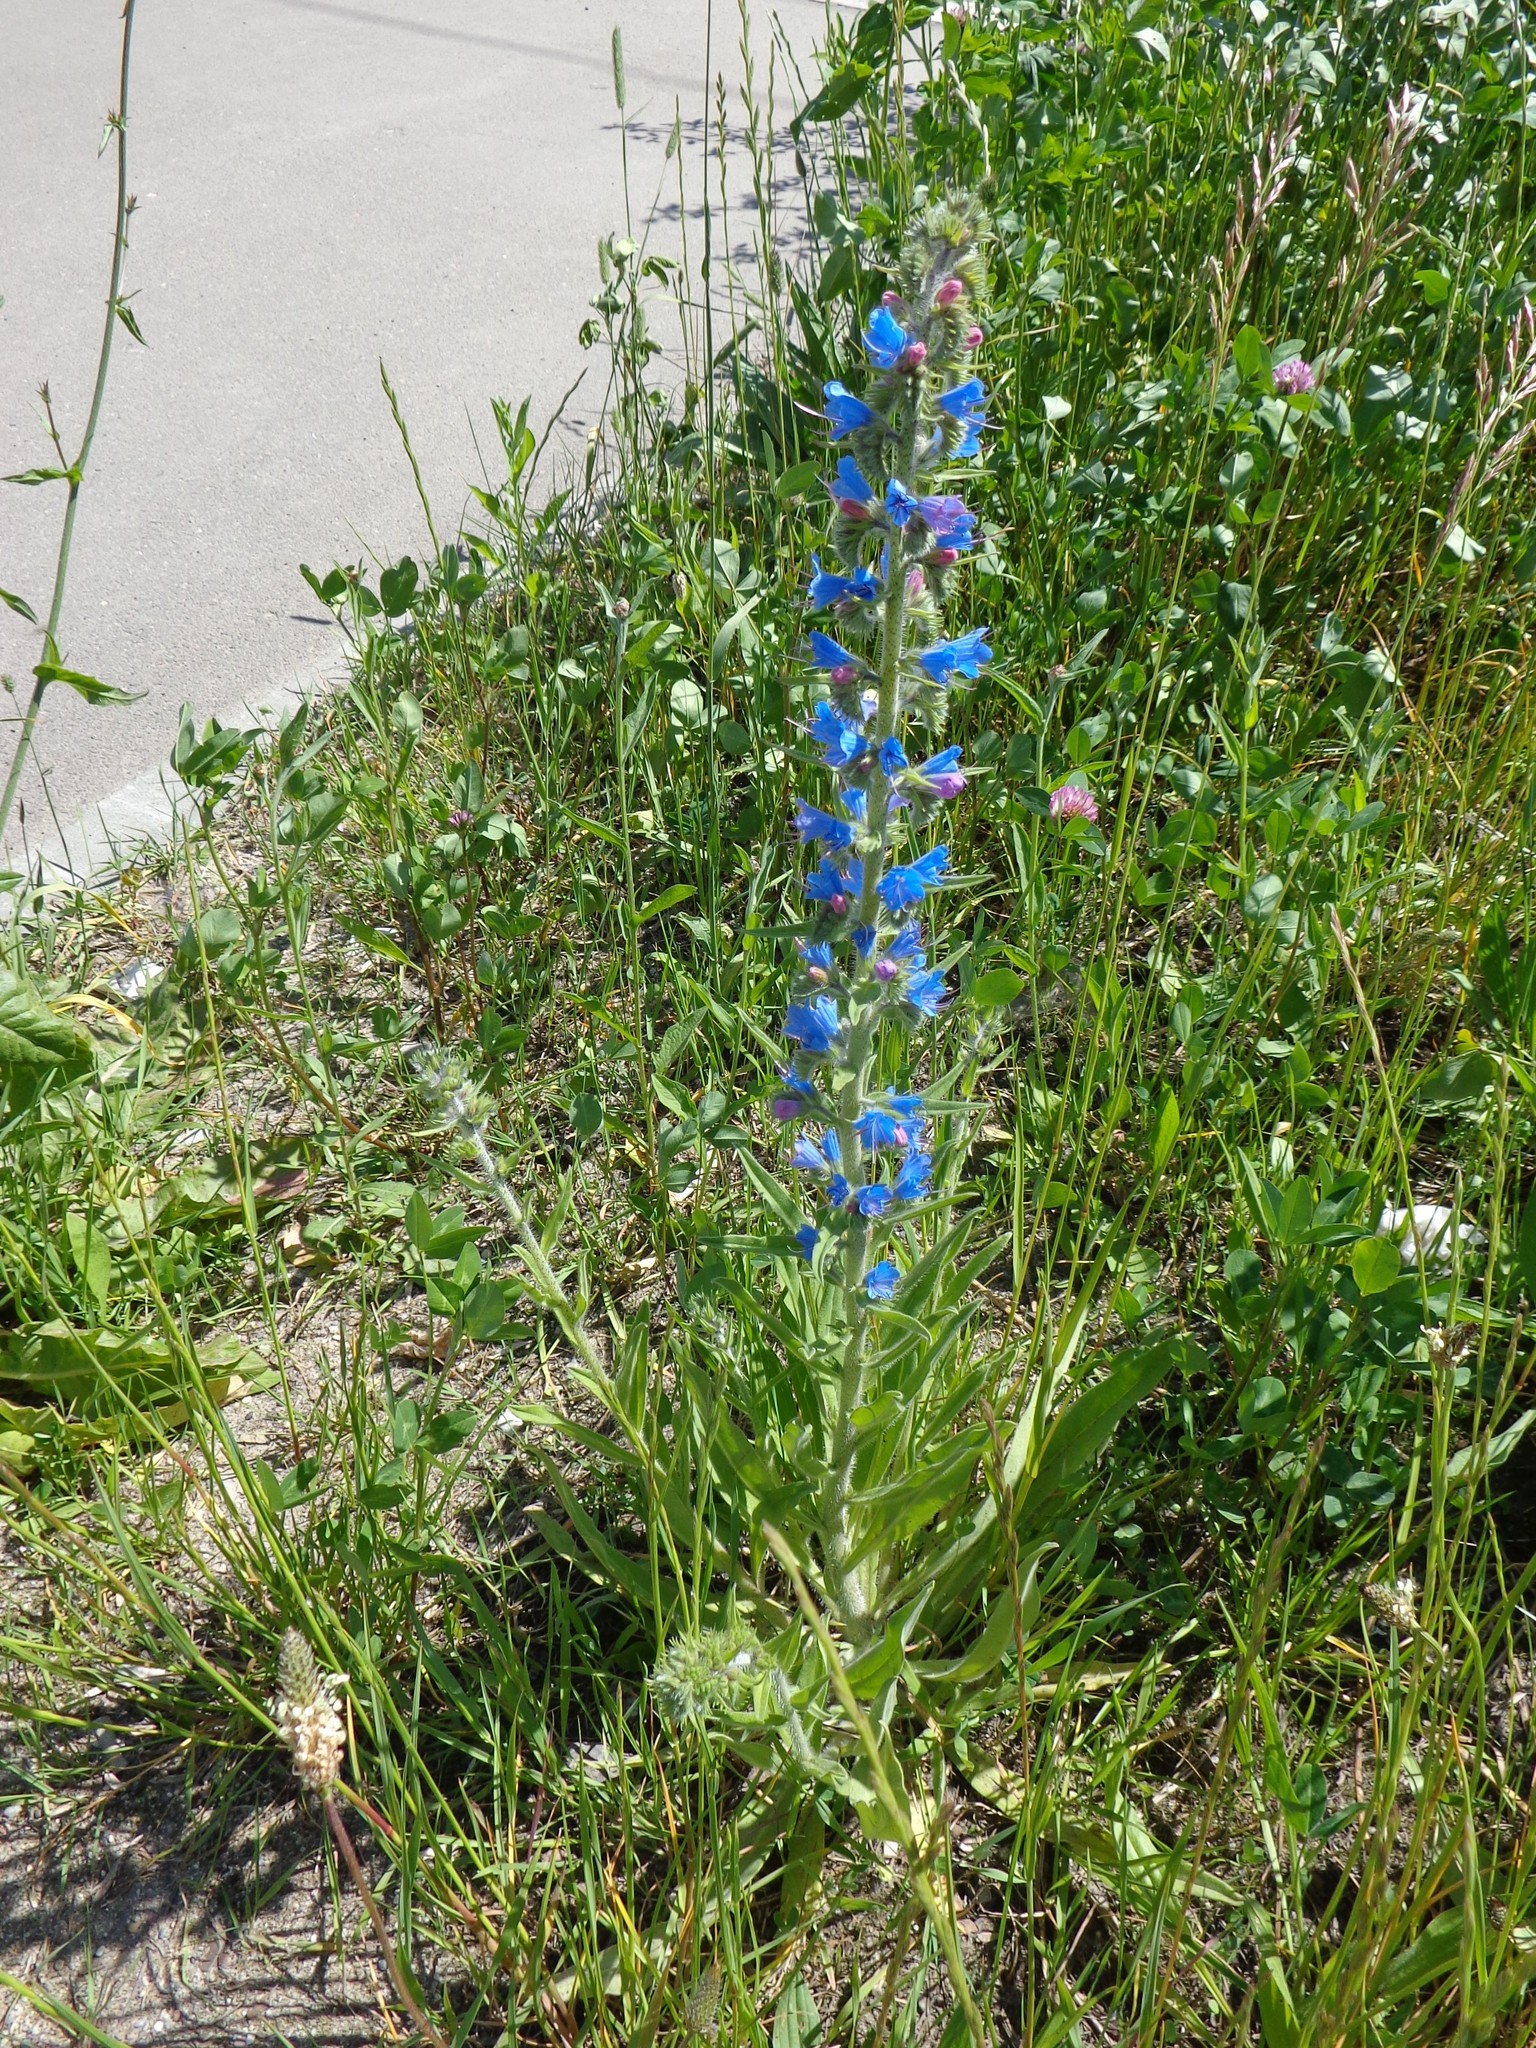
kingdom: Plantae
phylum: Tracheophyta
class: Magnoliopsida
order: Boraginales
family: Boraginaceae
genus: Echium
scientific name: Echium vulgare
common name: Common viper's bugloss
